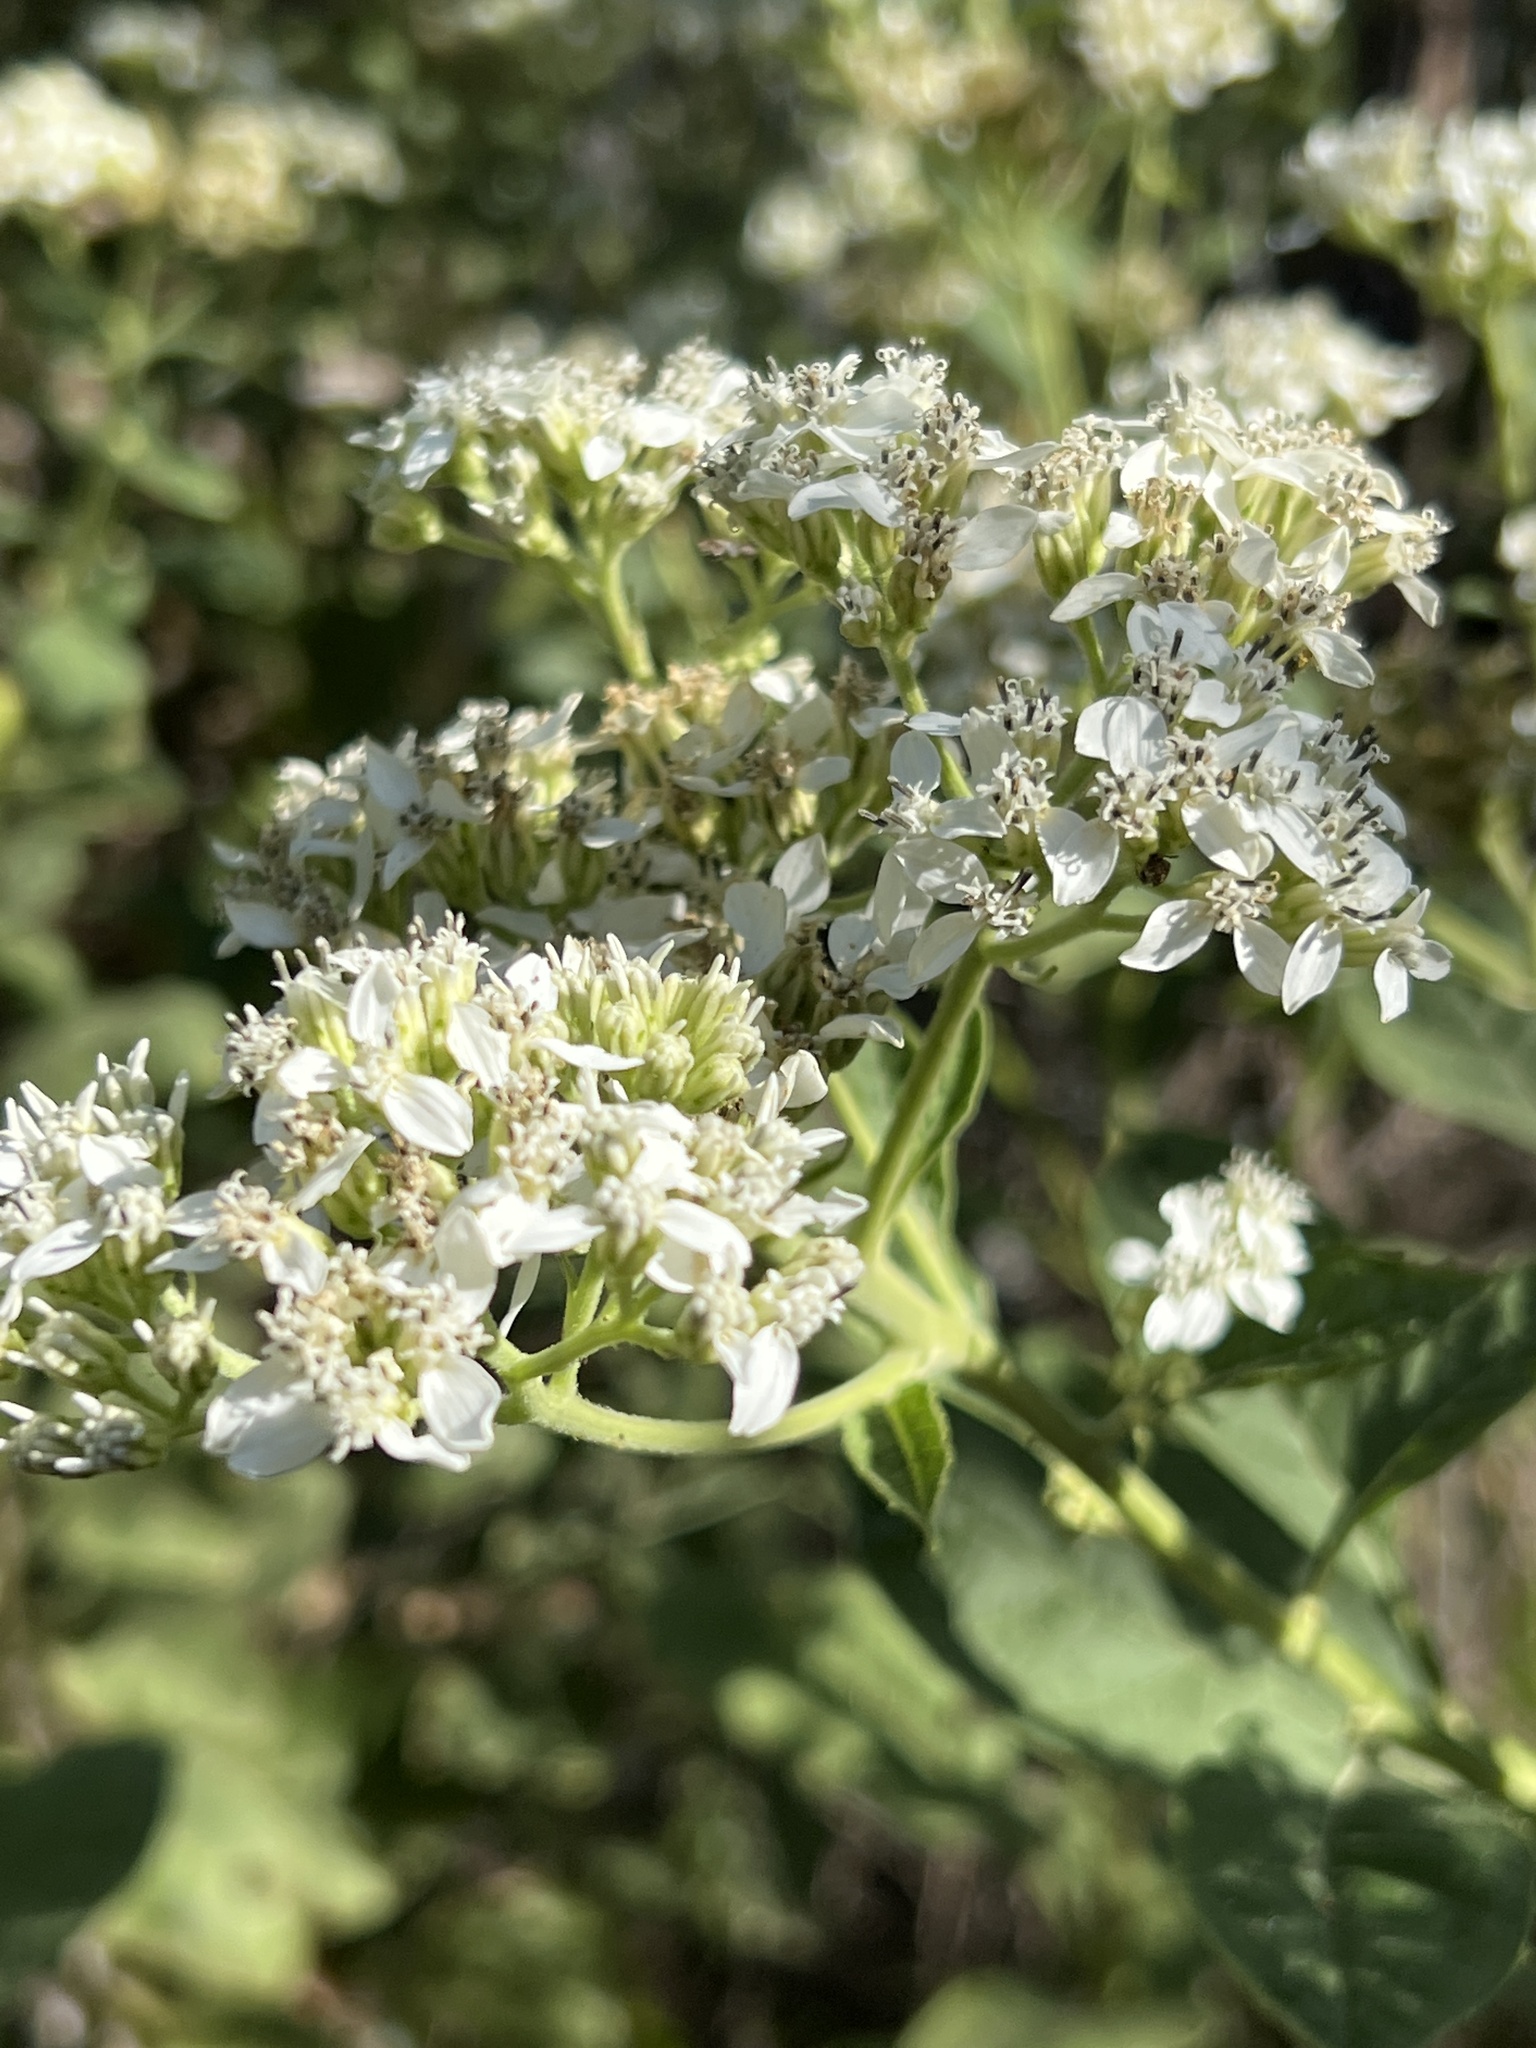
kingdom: Plantae
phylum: Tracheophyta
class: Magnoliopsida
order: Asterales
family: Asteraceae
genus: Verbesina
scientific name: Verbesina virginica
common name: Frostweed
